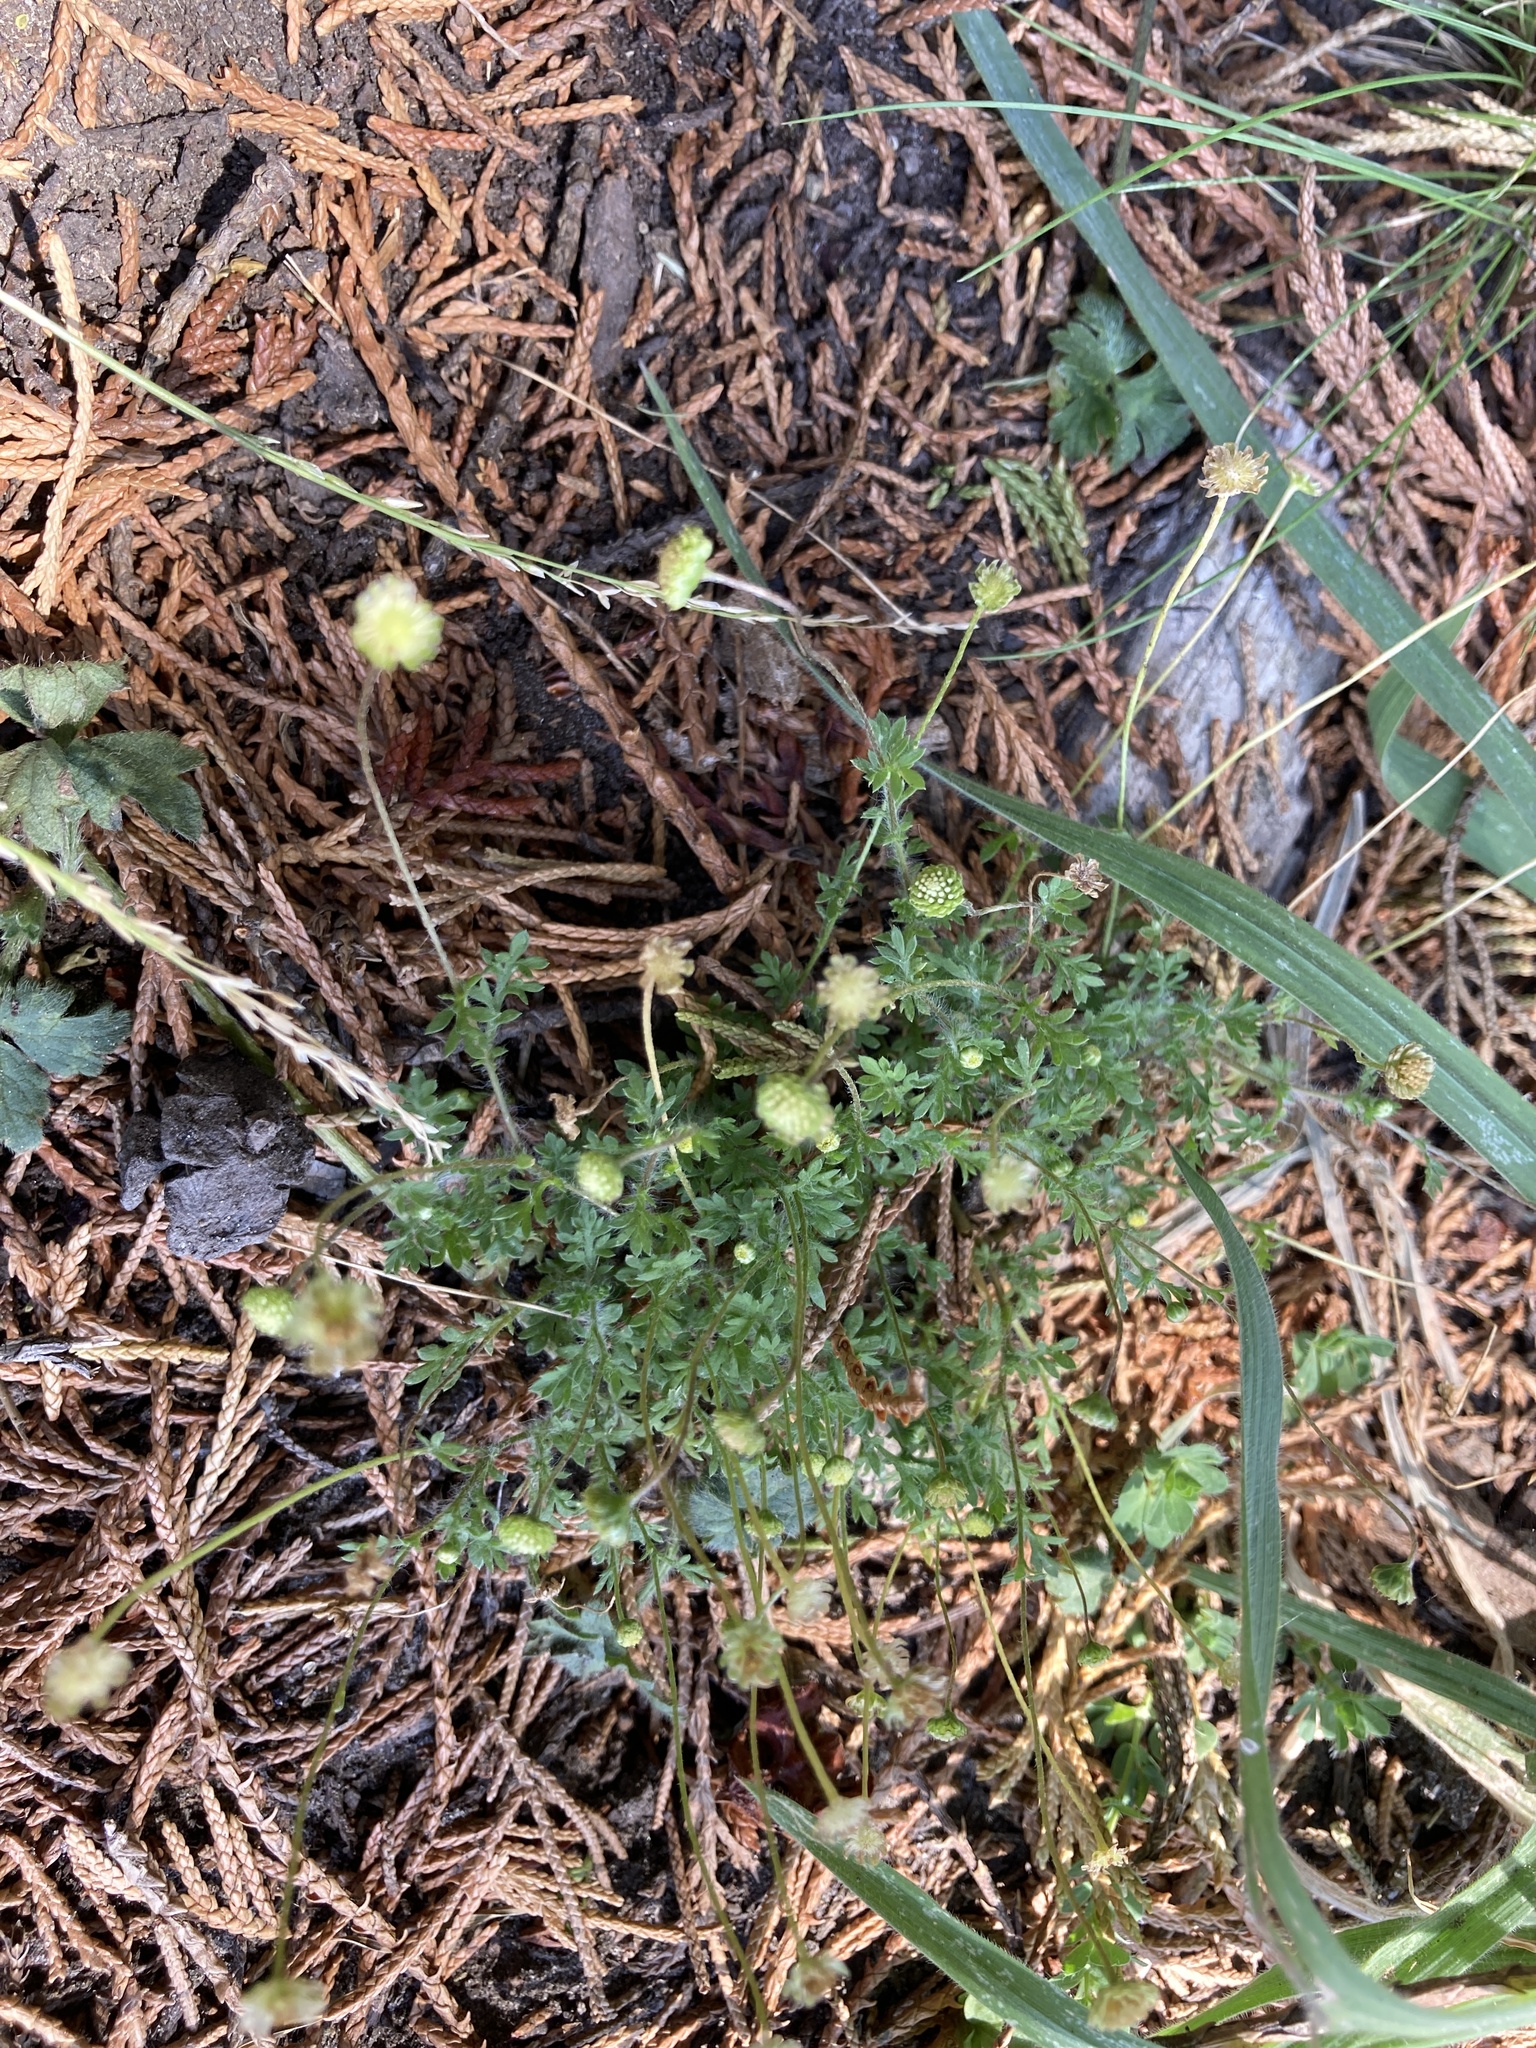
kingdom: Plantae
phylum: Tracheophyta
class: Magnoliopsida
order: Asterales
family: Asteraceae
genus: Cotula
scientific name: Cotula australis
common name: Australian waterbuttons
